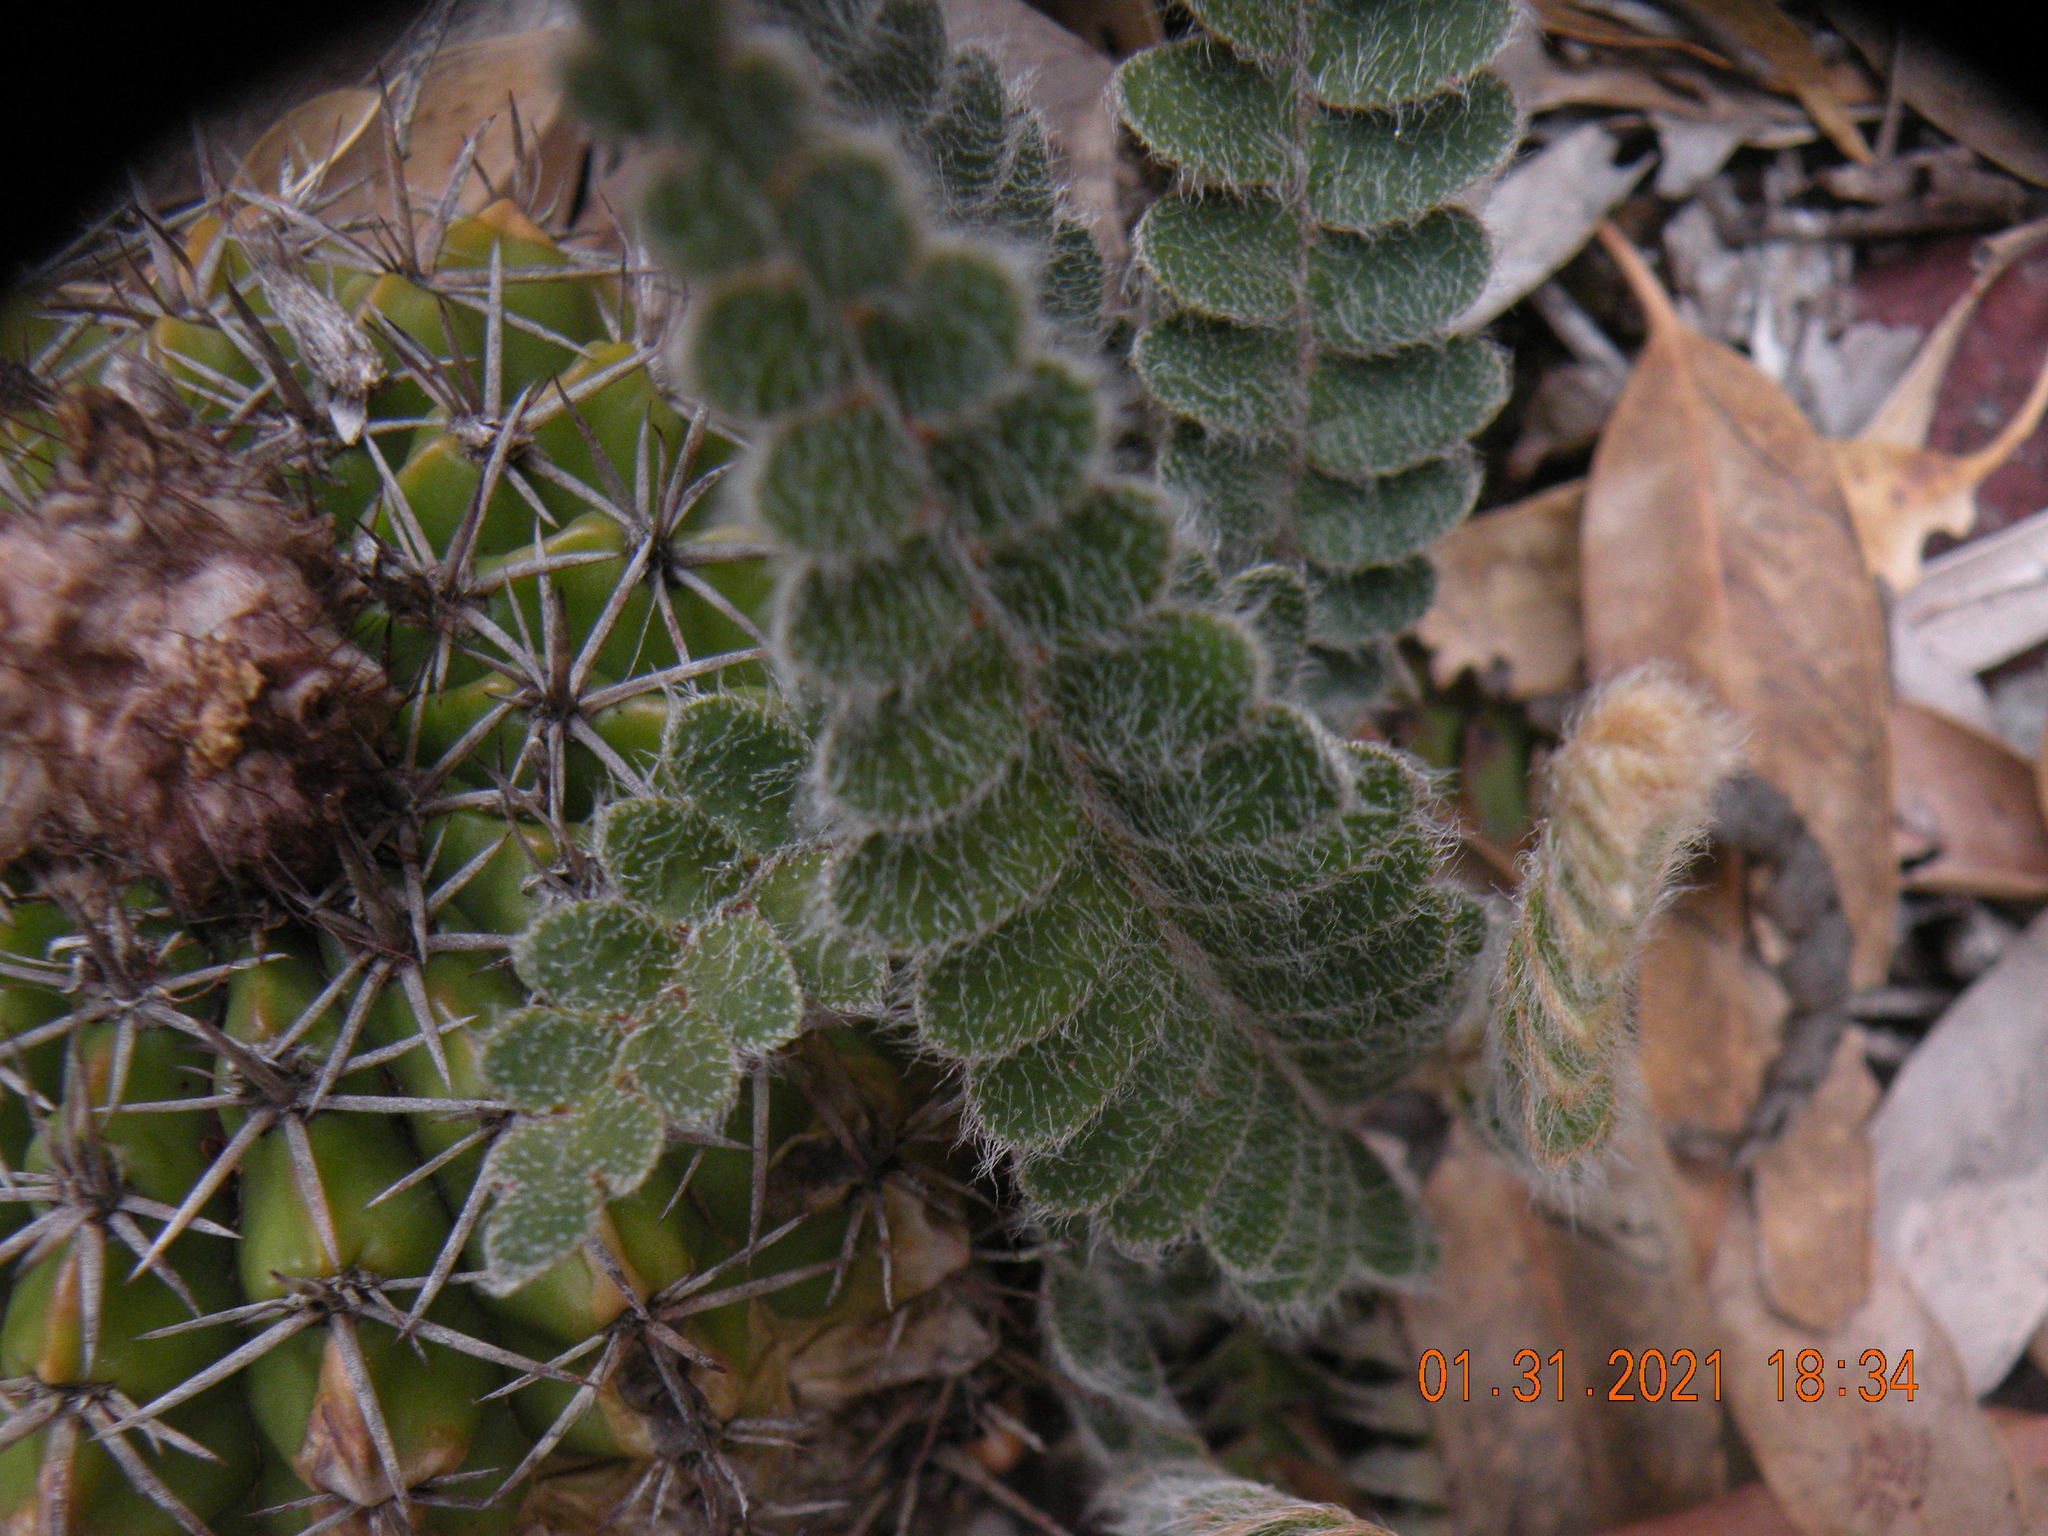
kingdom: Plantae
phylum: Tracheophyta
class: Polypodiopsida
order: Polypodiales
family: Polypodiaceae
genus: Pleopeltis
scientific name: Pleopeltis lepidopteris
